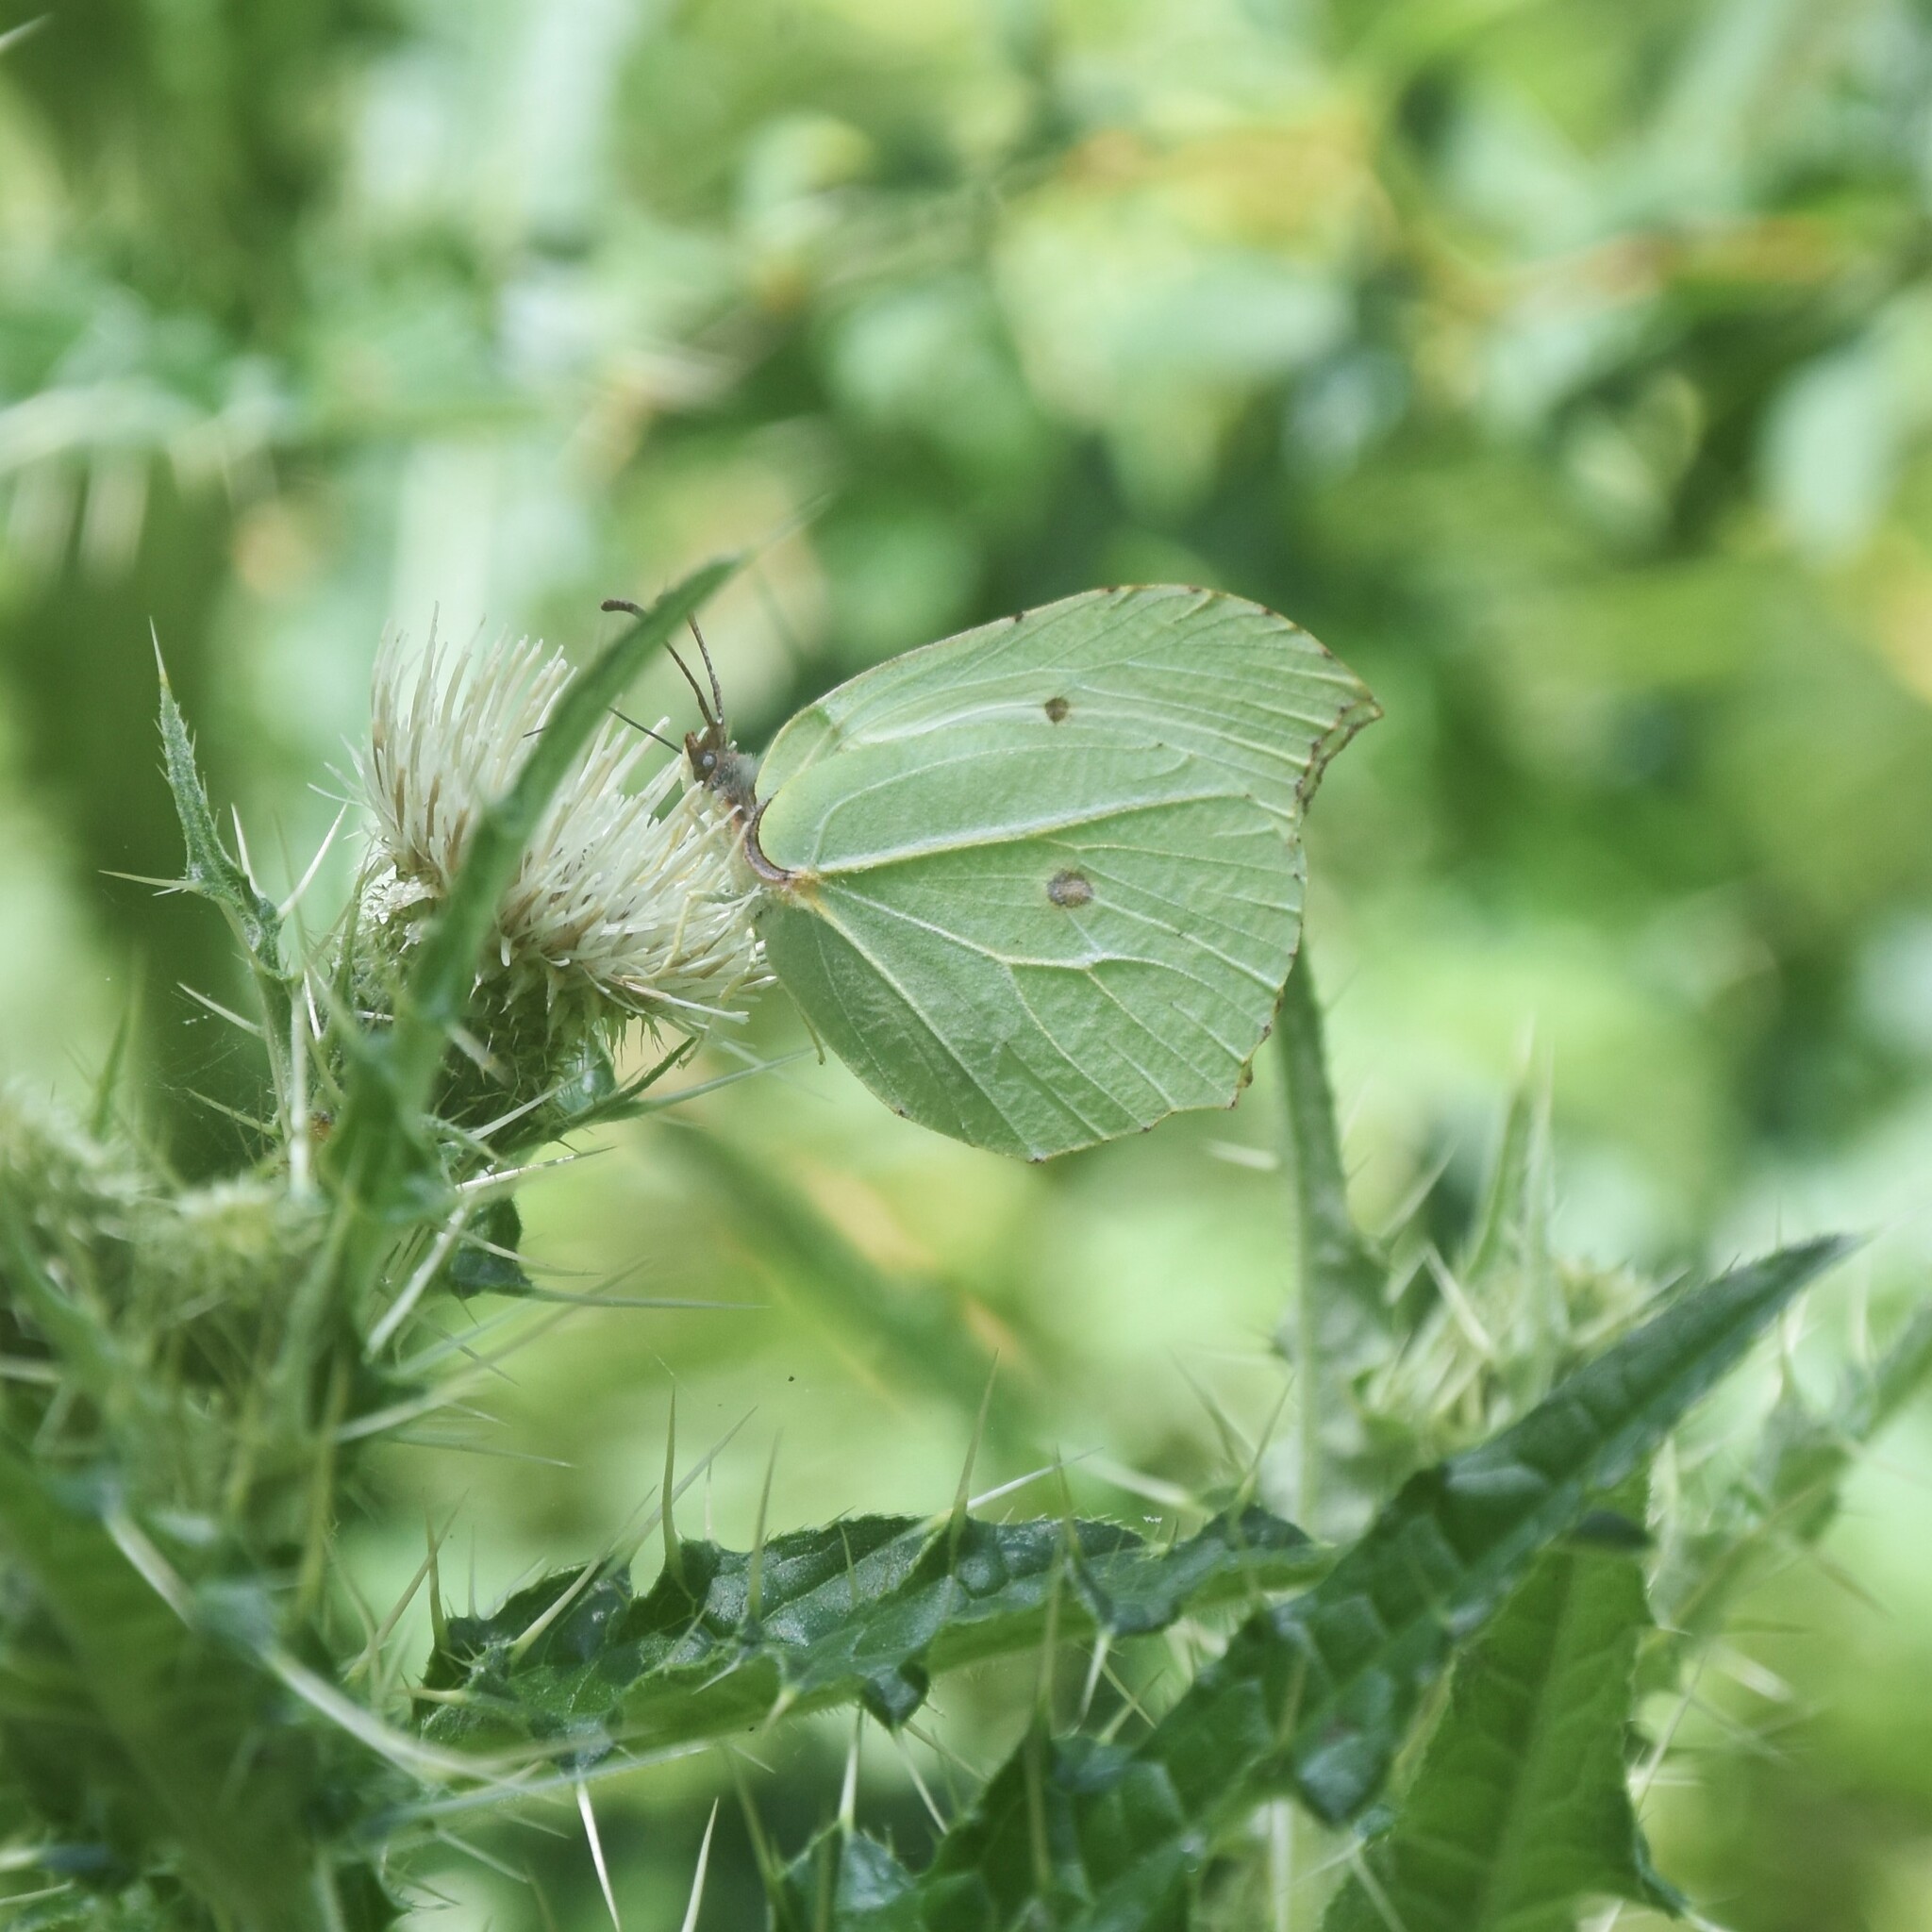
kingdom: Animalia
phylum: Arthropoda
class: Insecta
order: Lepidoptera
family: Pieridae
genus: Gonepteryx
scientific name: Gonepteryx
